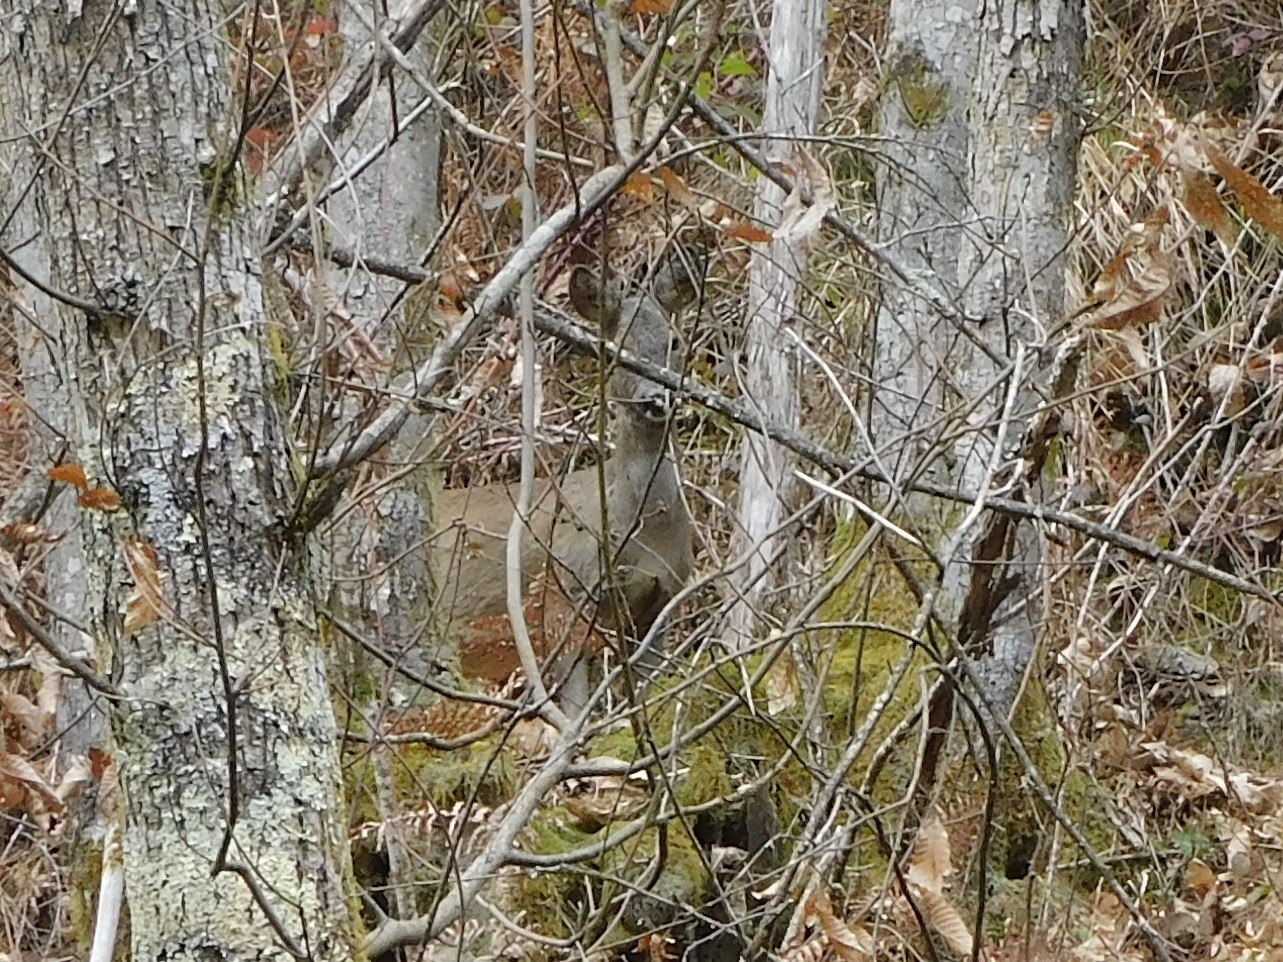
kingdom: Animalia
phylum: Chordata
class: Mammalia
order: Artiodactyla
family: Cervidae
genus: Capreolus
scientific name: Capreolus capreolus
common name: Western roe deer
